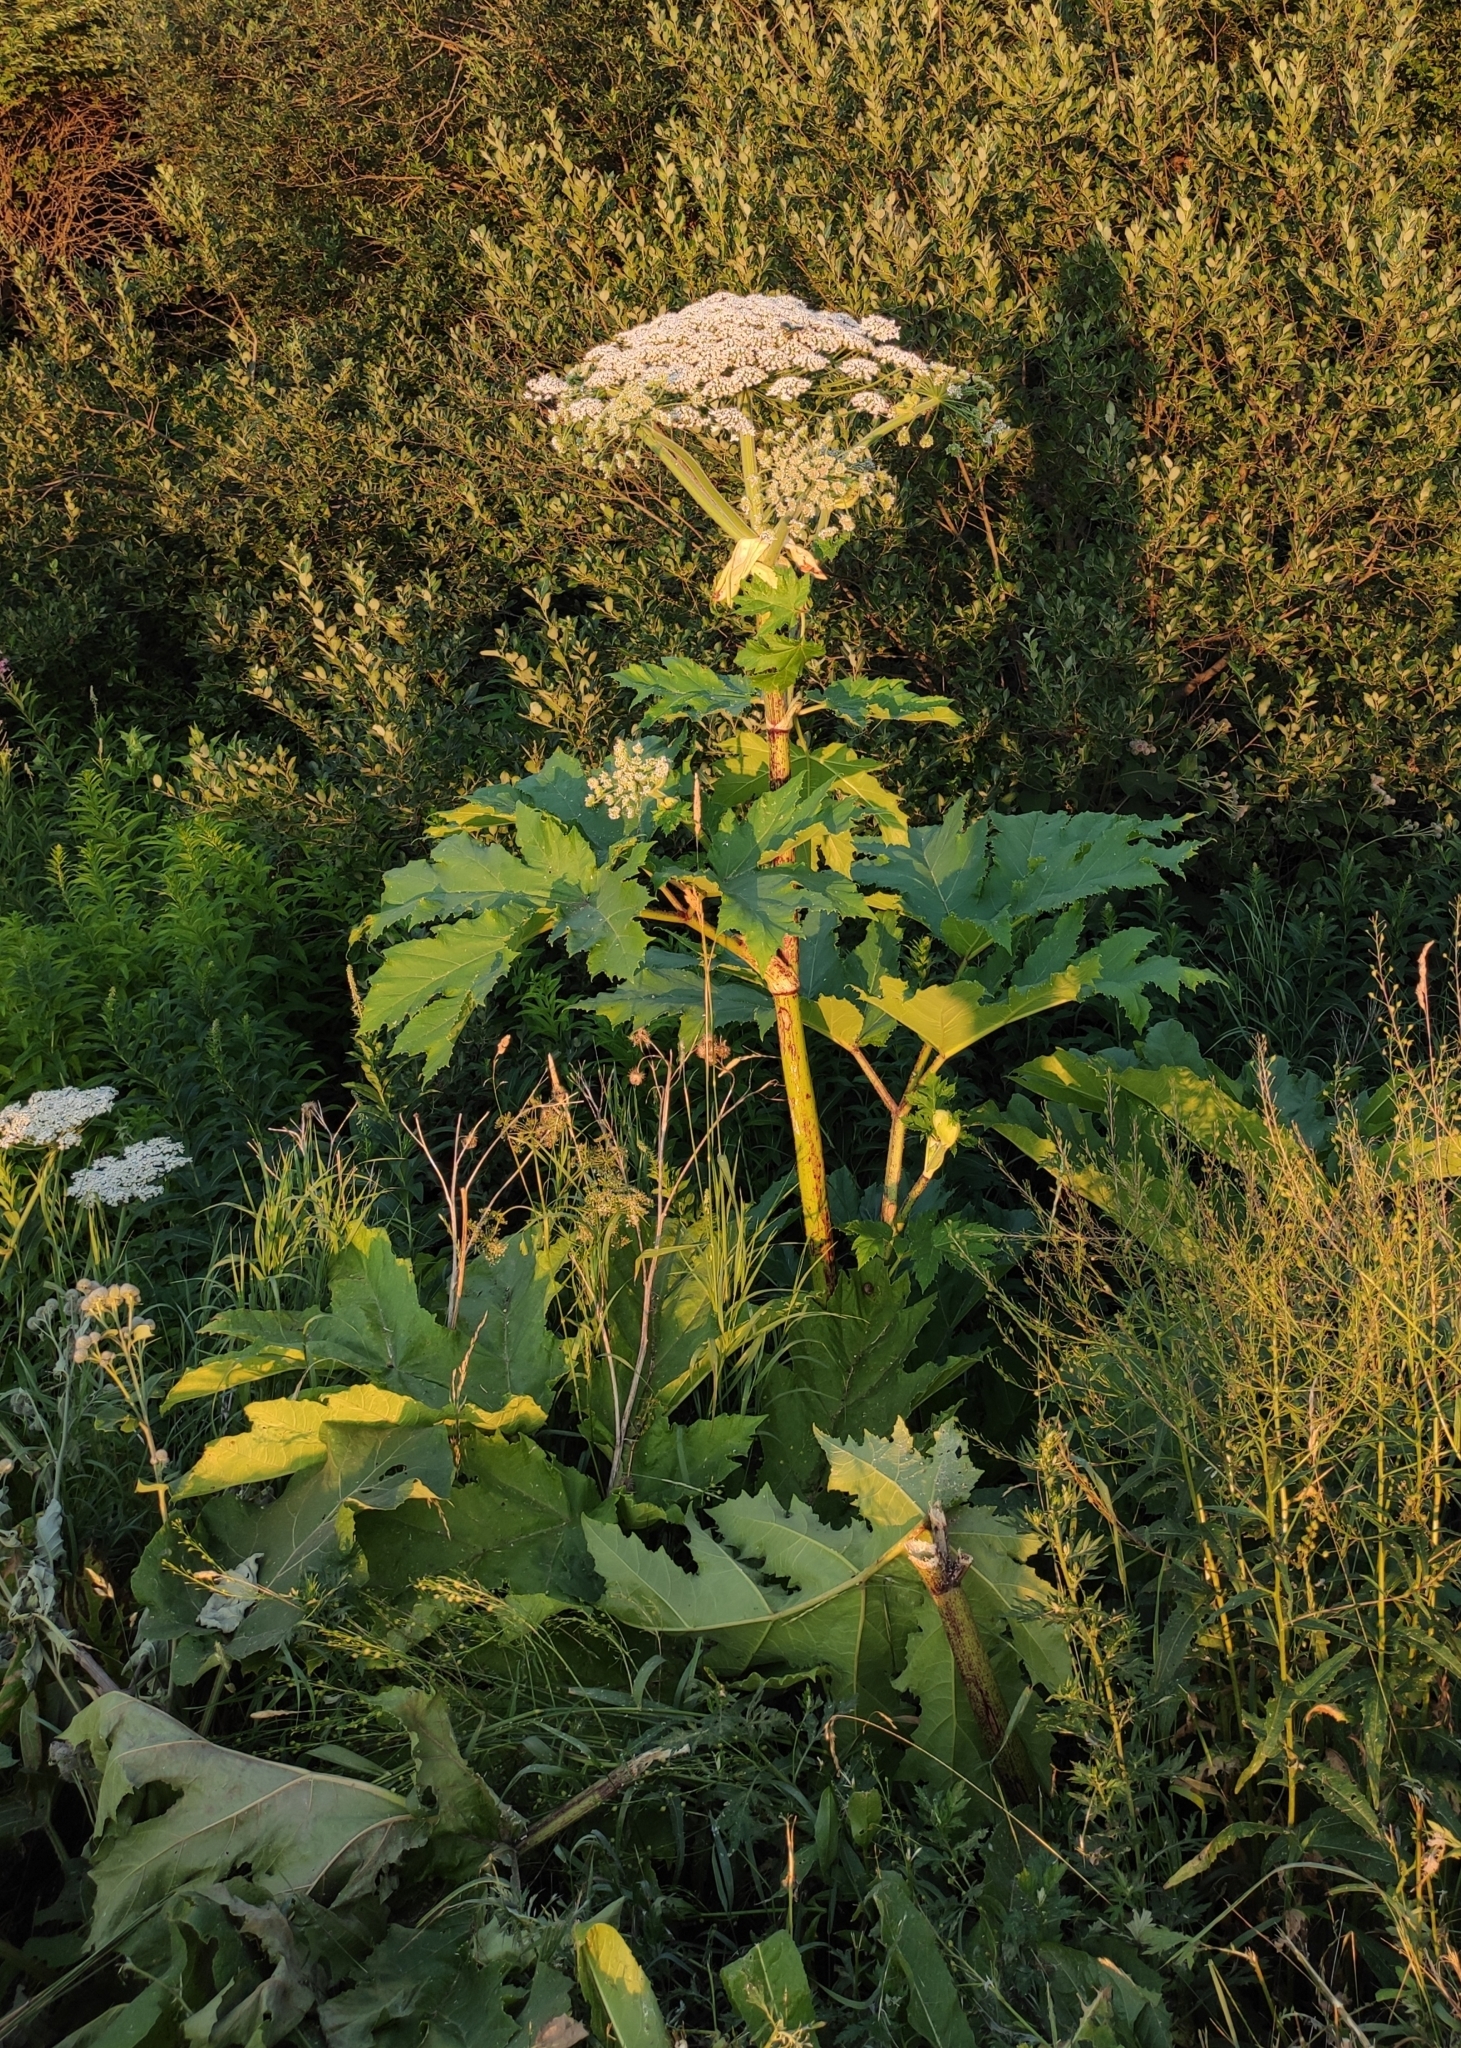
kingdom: Plantae
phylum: Tracheophyta
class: Magnoliopsida
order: Apiales
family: Apiaceae
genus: Heracleum
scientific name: Heracleum sosnowskyi
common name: Sosnowsky's hogweed
